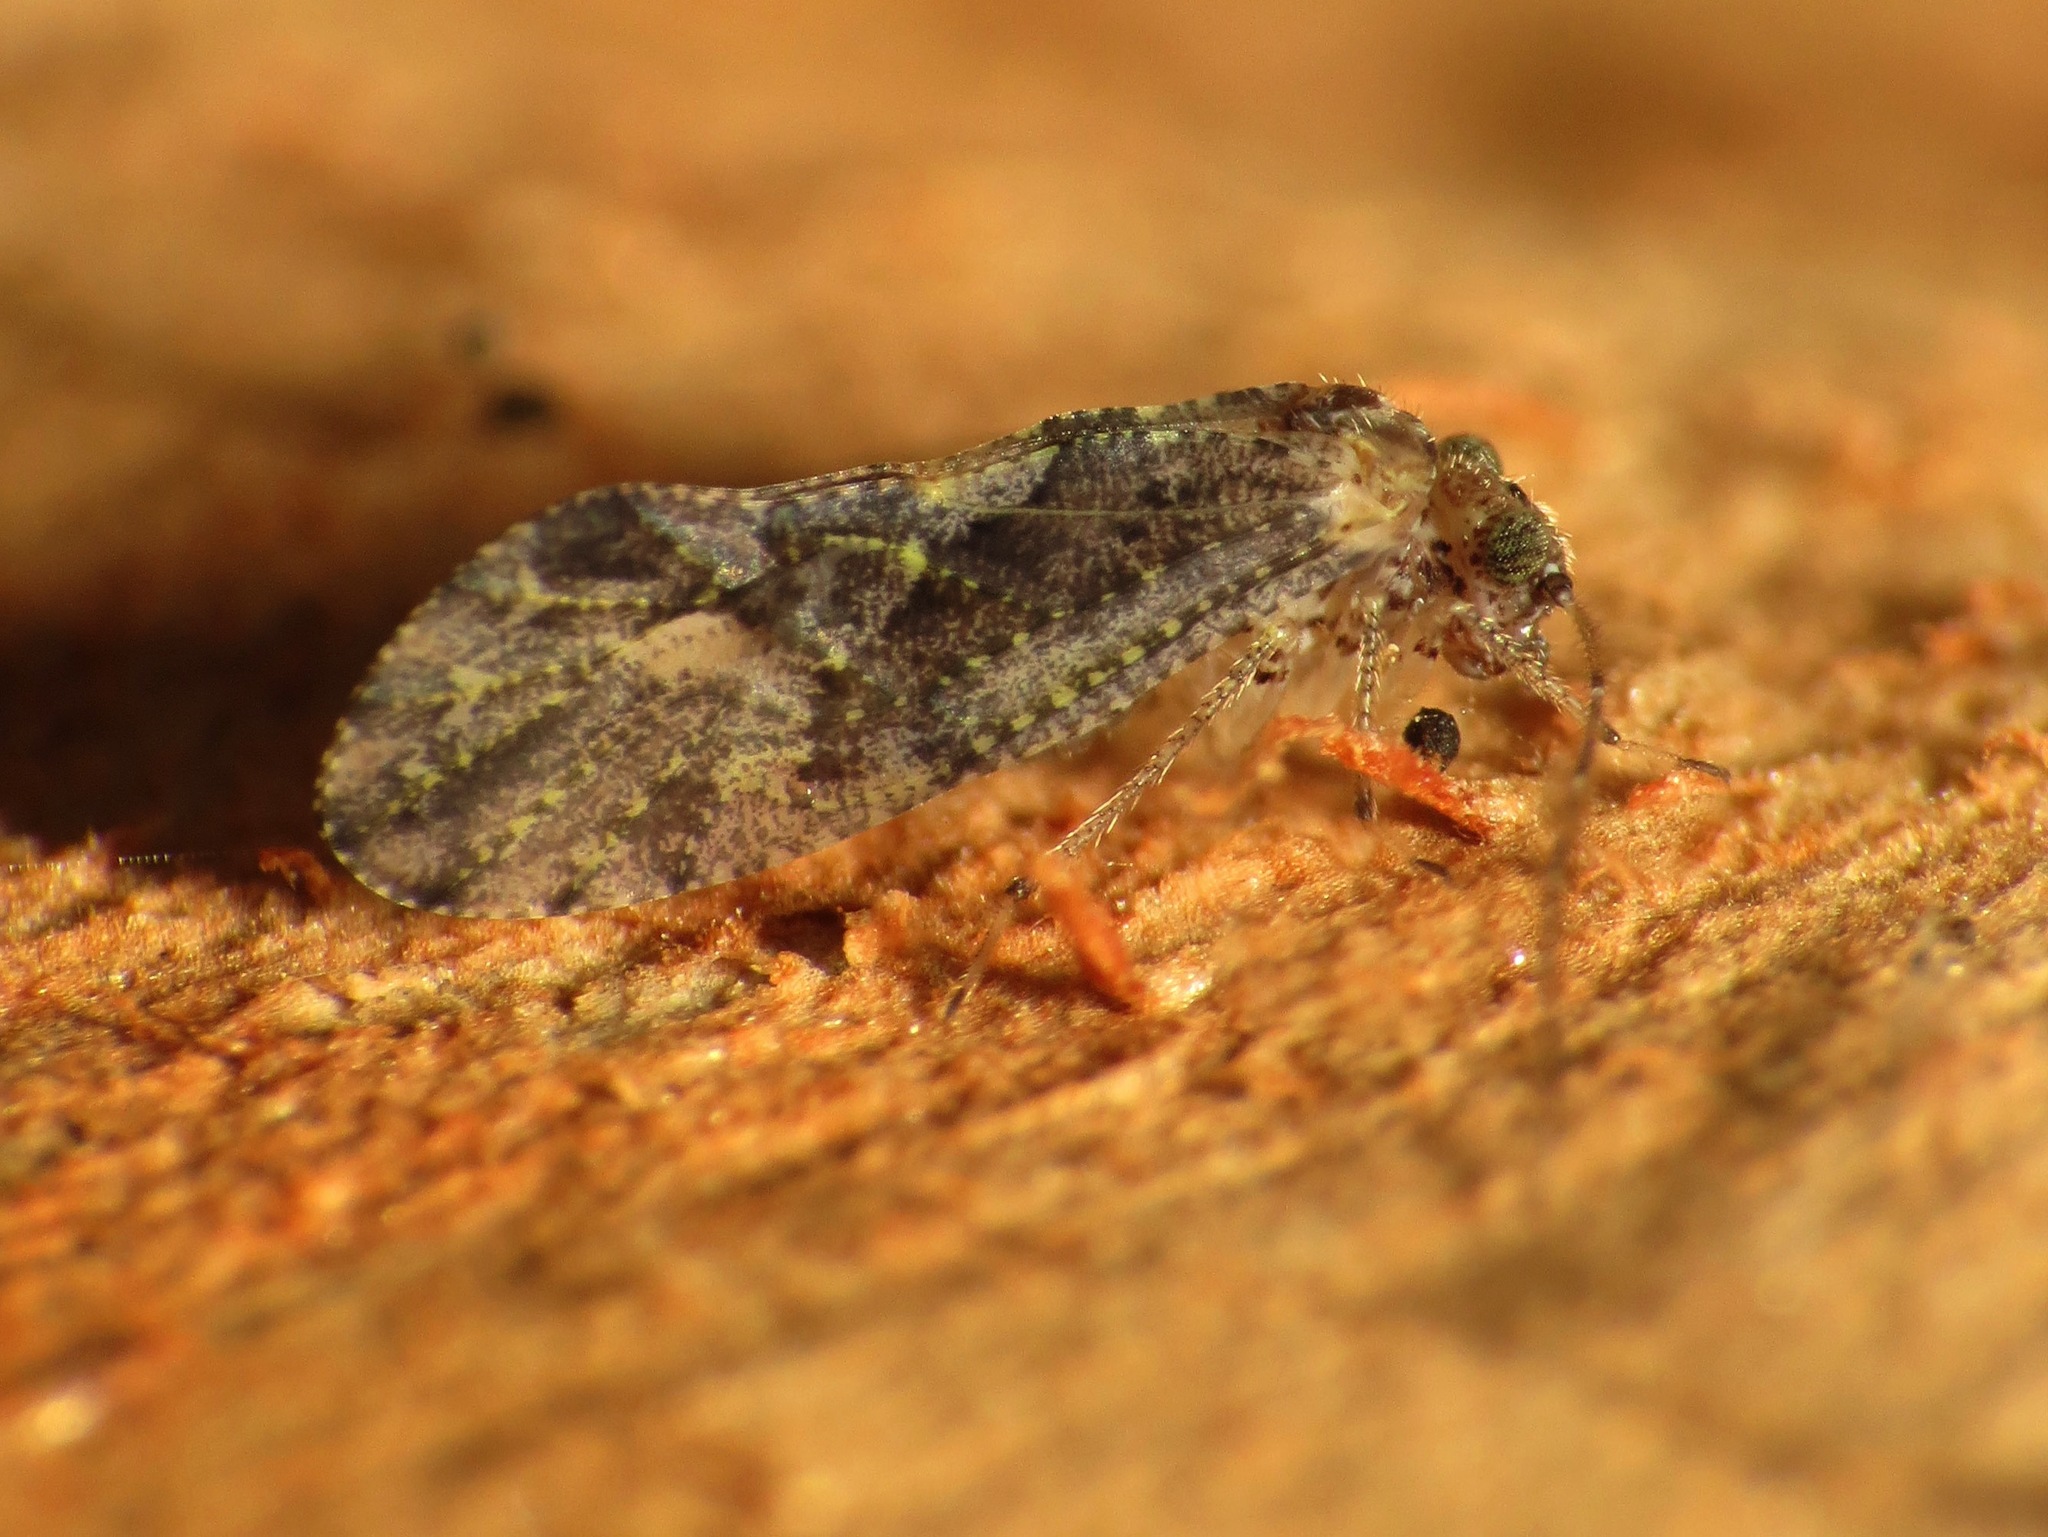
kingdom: Animalia
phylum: Arthropoda
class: Insecta
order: Psocodea
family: Myopsocidae
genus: Myopsocus
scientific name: Myopsocus eatoni
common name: Mouse-like bark louse
